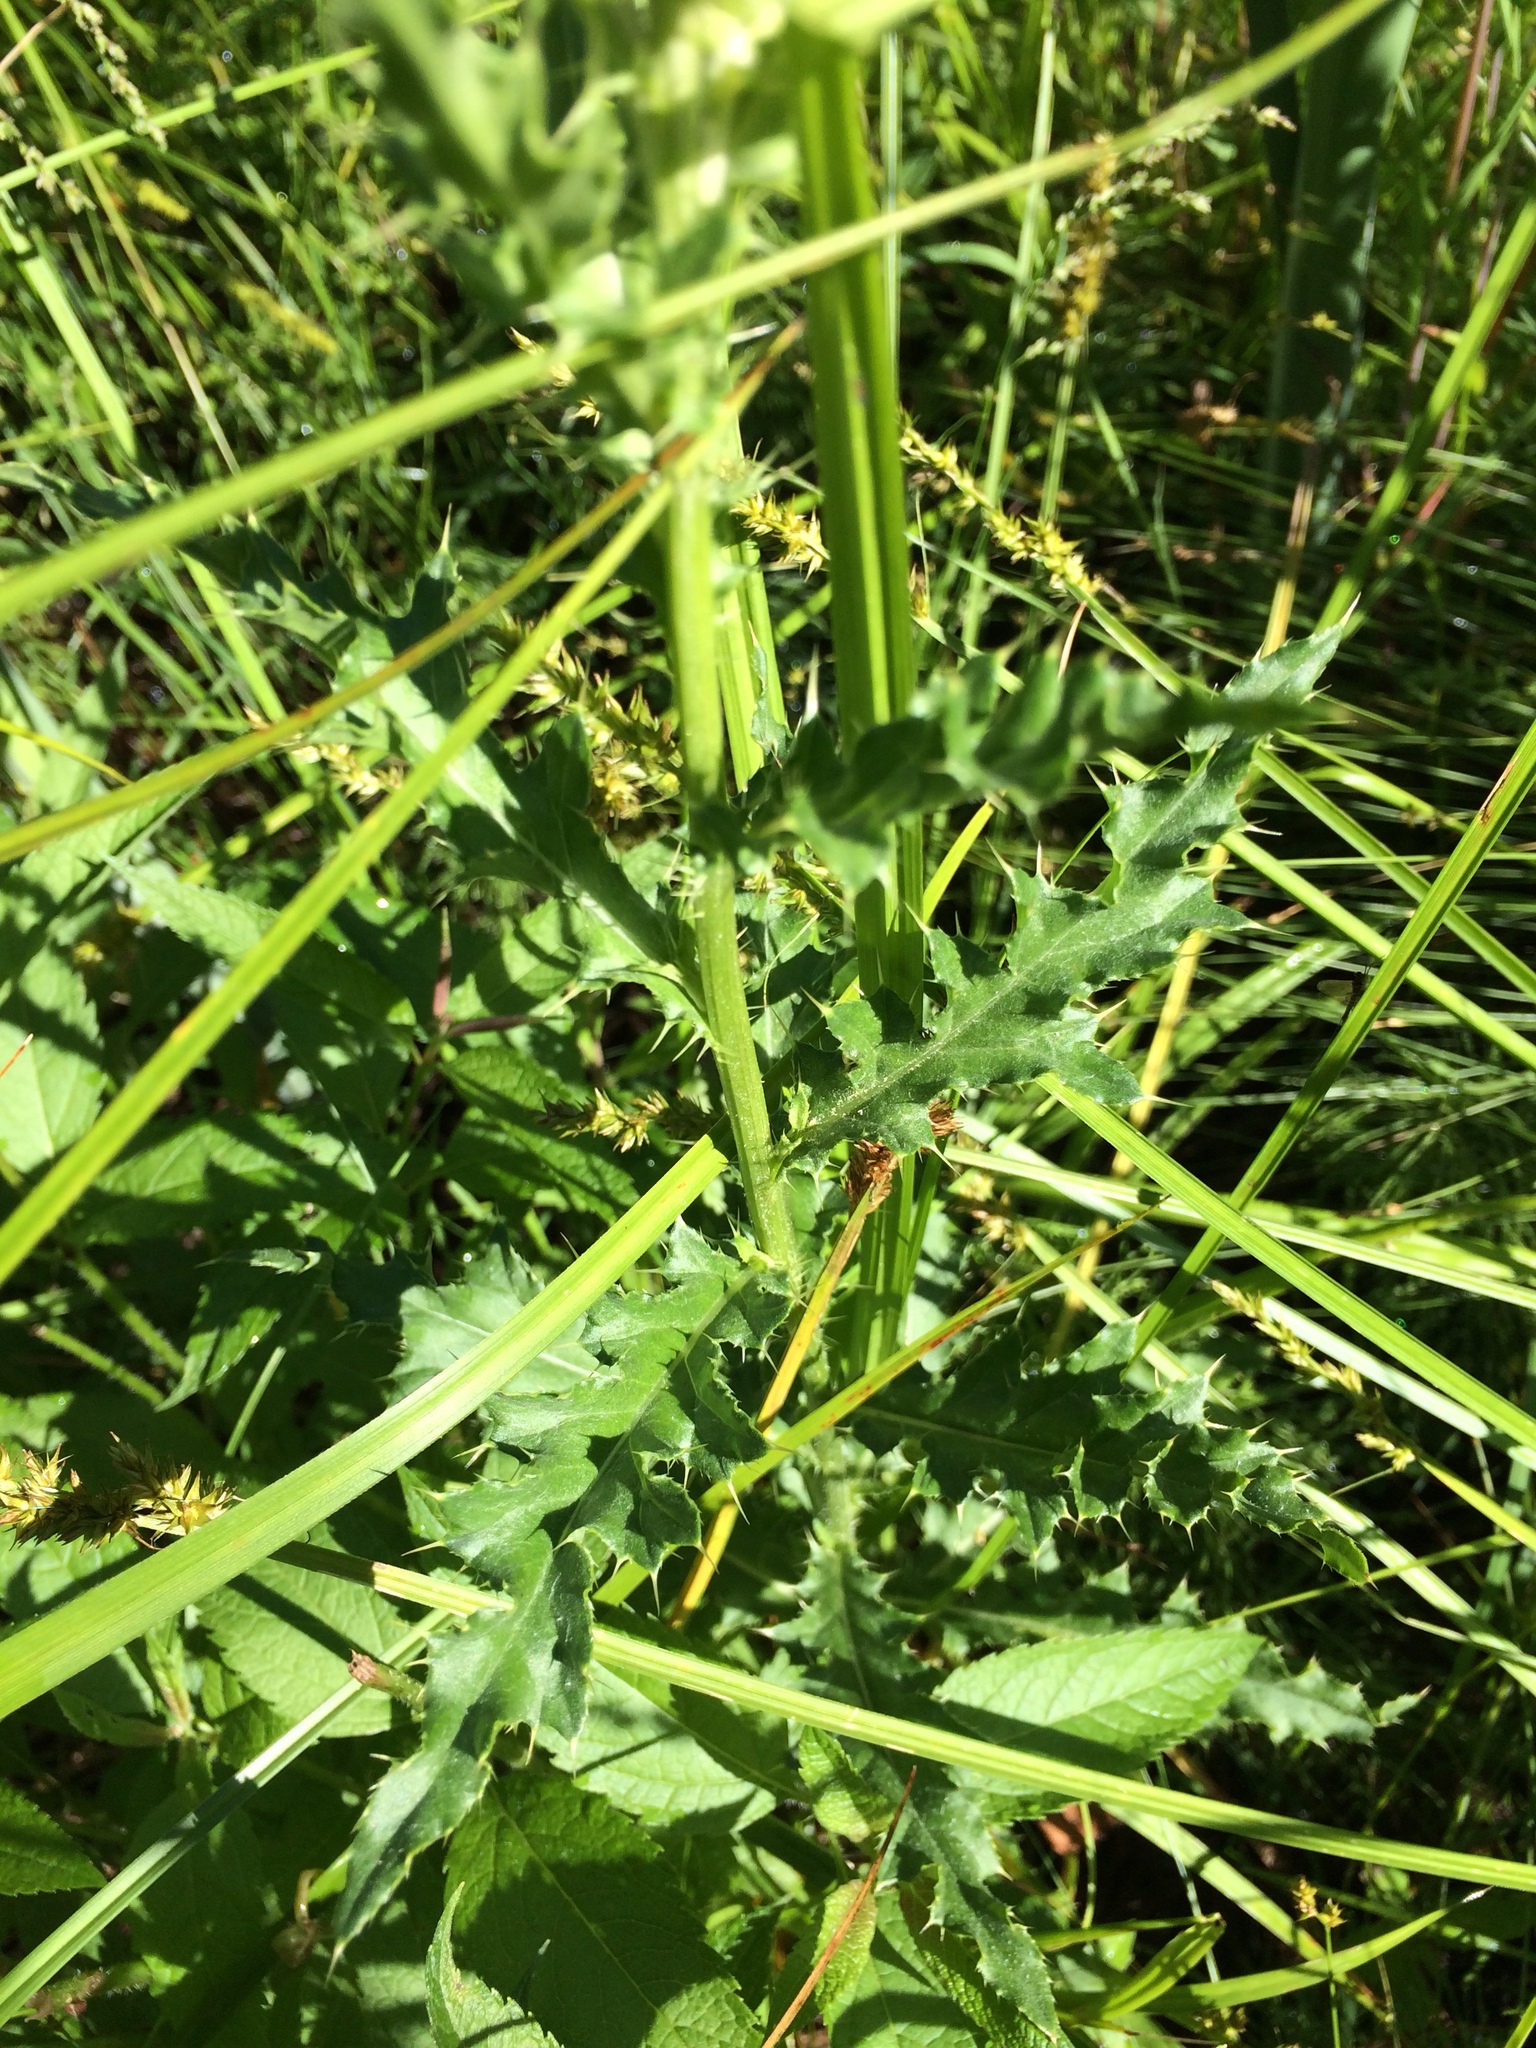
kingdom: Plantae
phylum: Tracheophyta
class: Magnoliopsida
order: Asterales
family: Asteraceae
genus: Cirsium
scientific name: Cirsium arvense
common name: Creeping thistle
